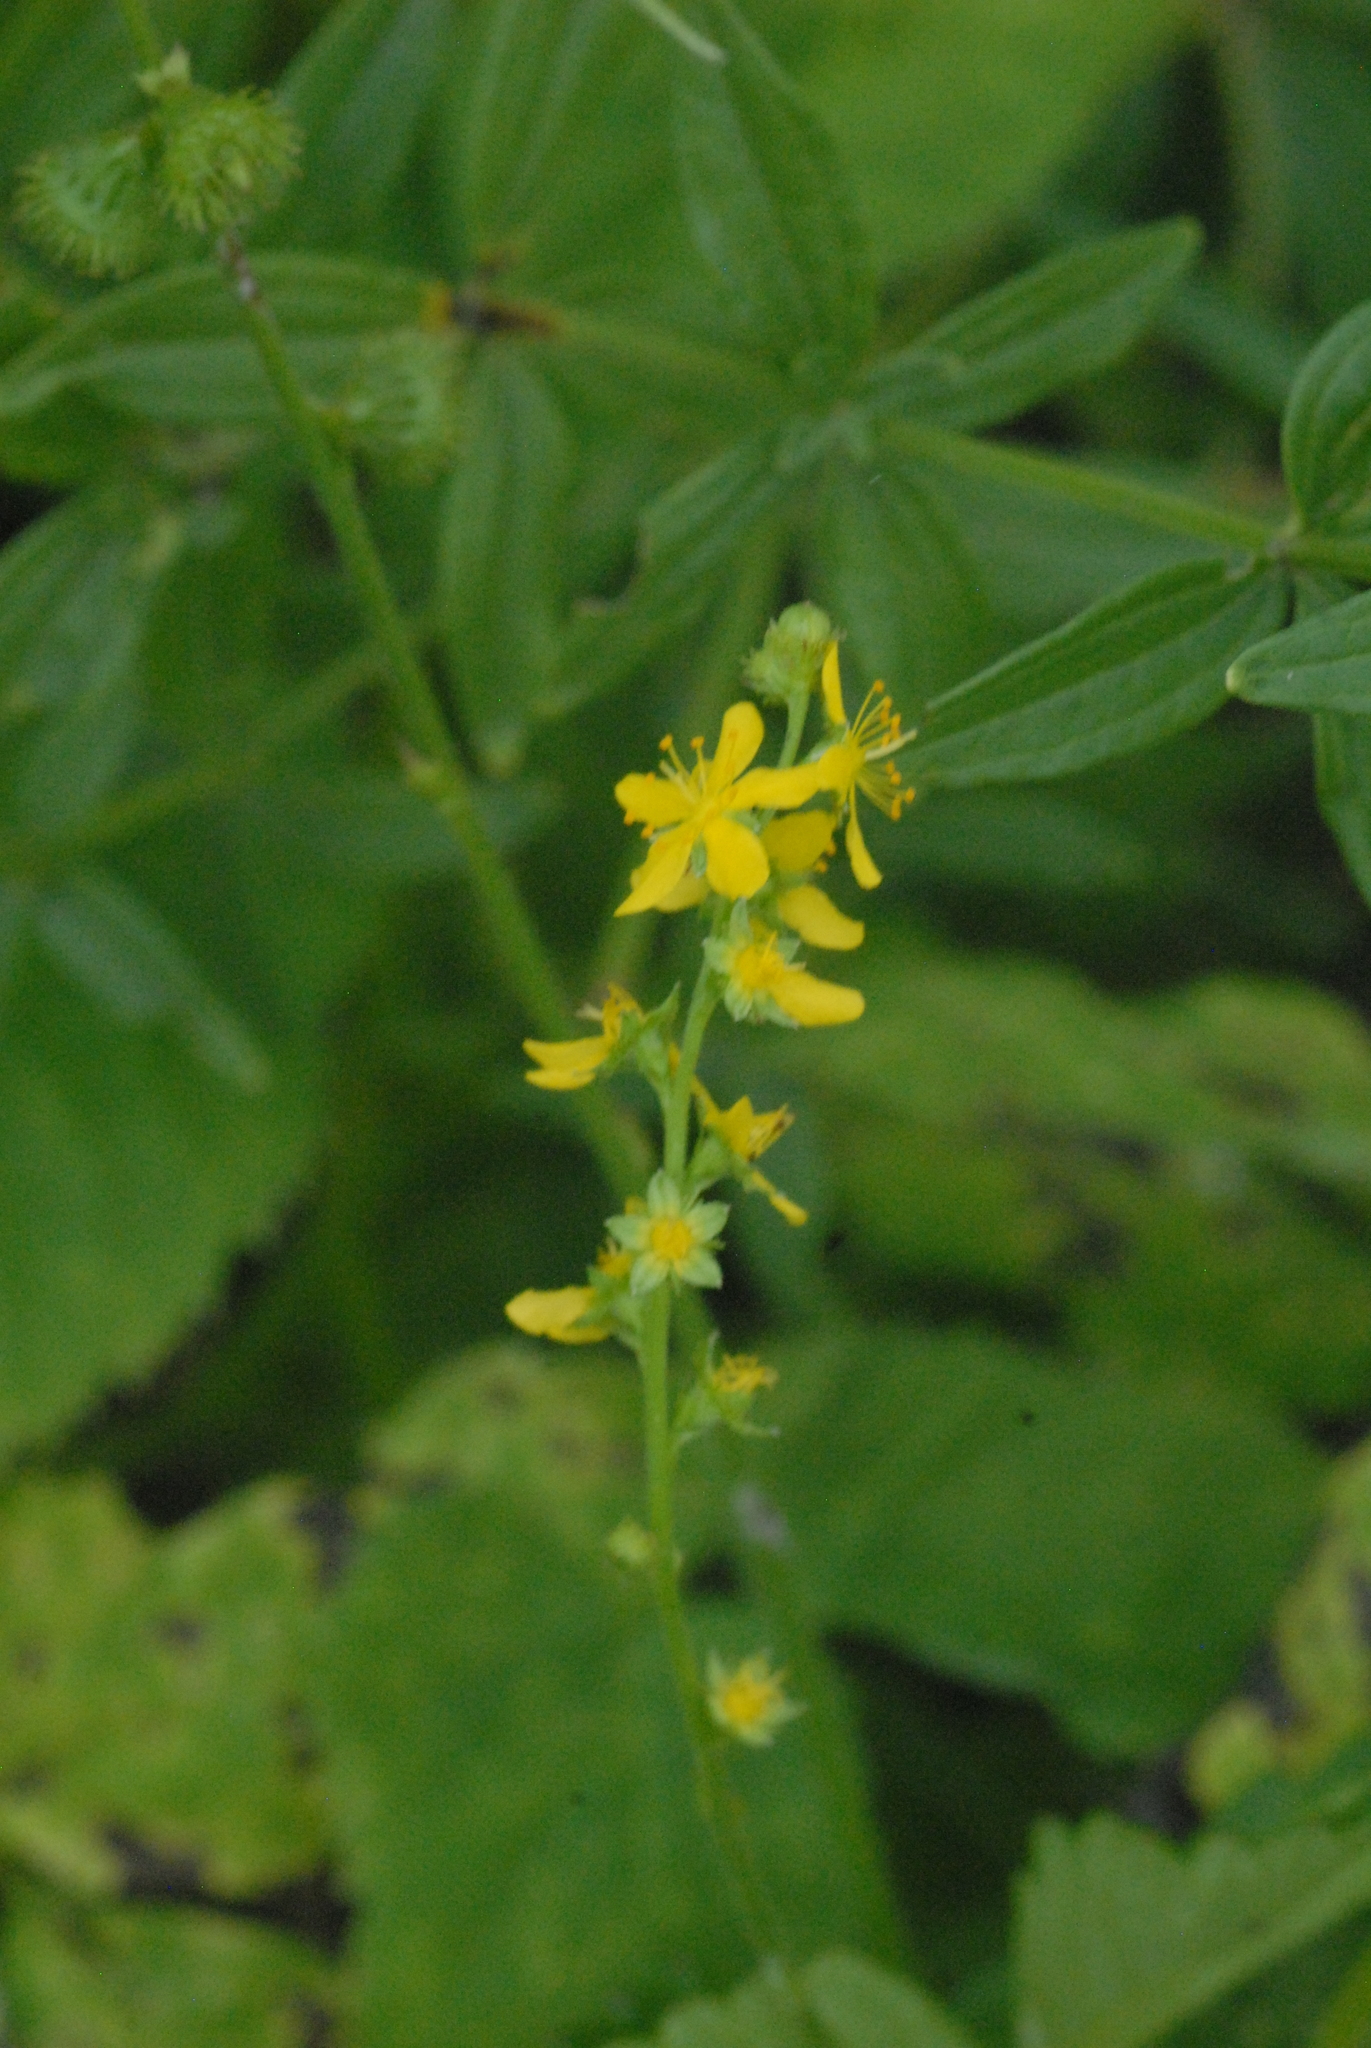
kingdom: Plantae
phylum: Tracheophyta
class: Magnoliopsida
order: Rosales
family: Rosaceae
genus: Agrimonia
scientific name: Agrimonia pilosa
